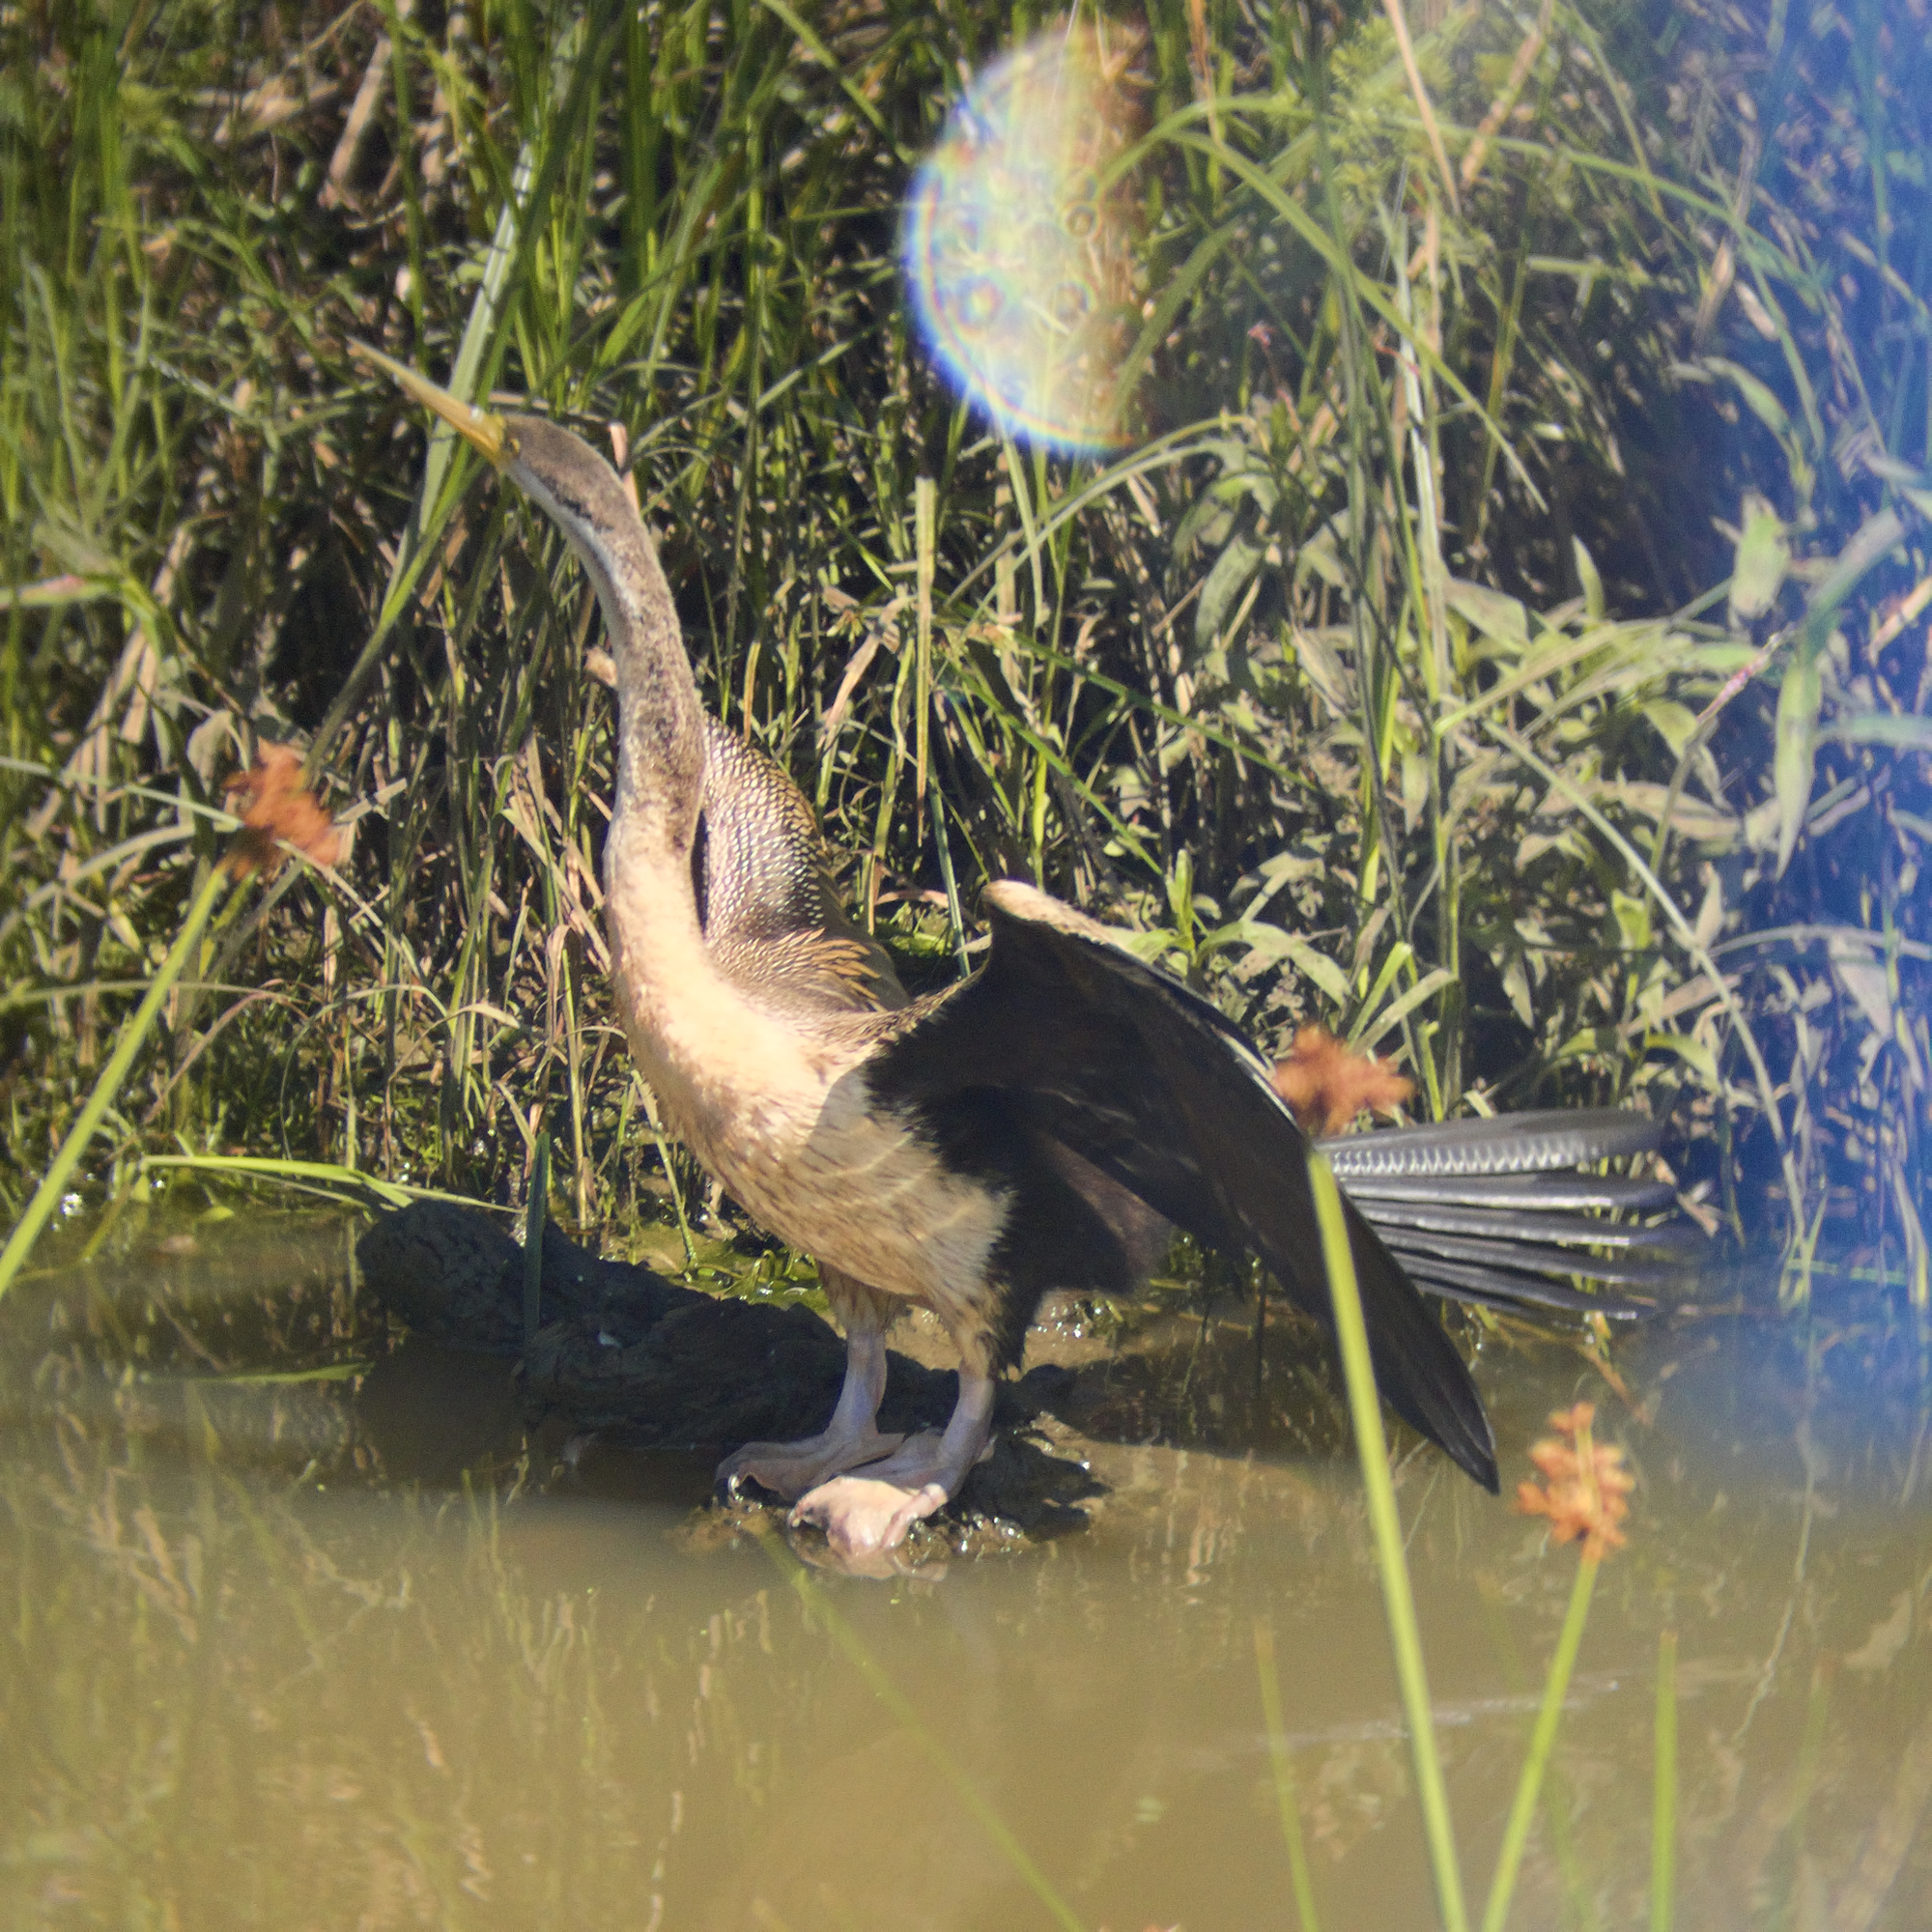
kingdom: Animalia
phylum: Chordata
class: Aves
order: Suliformes
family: Anhingidae
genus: Anhinga
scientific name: Anhinga novaehollandiae
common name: Australasian darter
